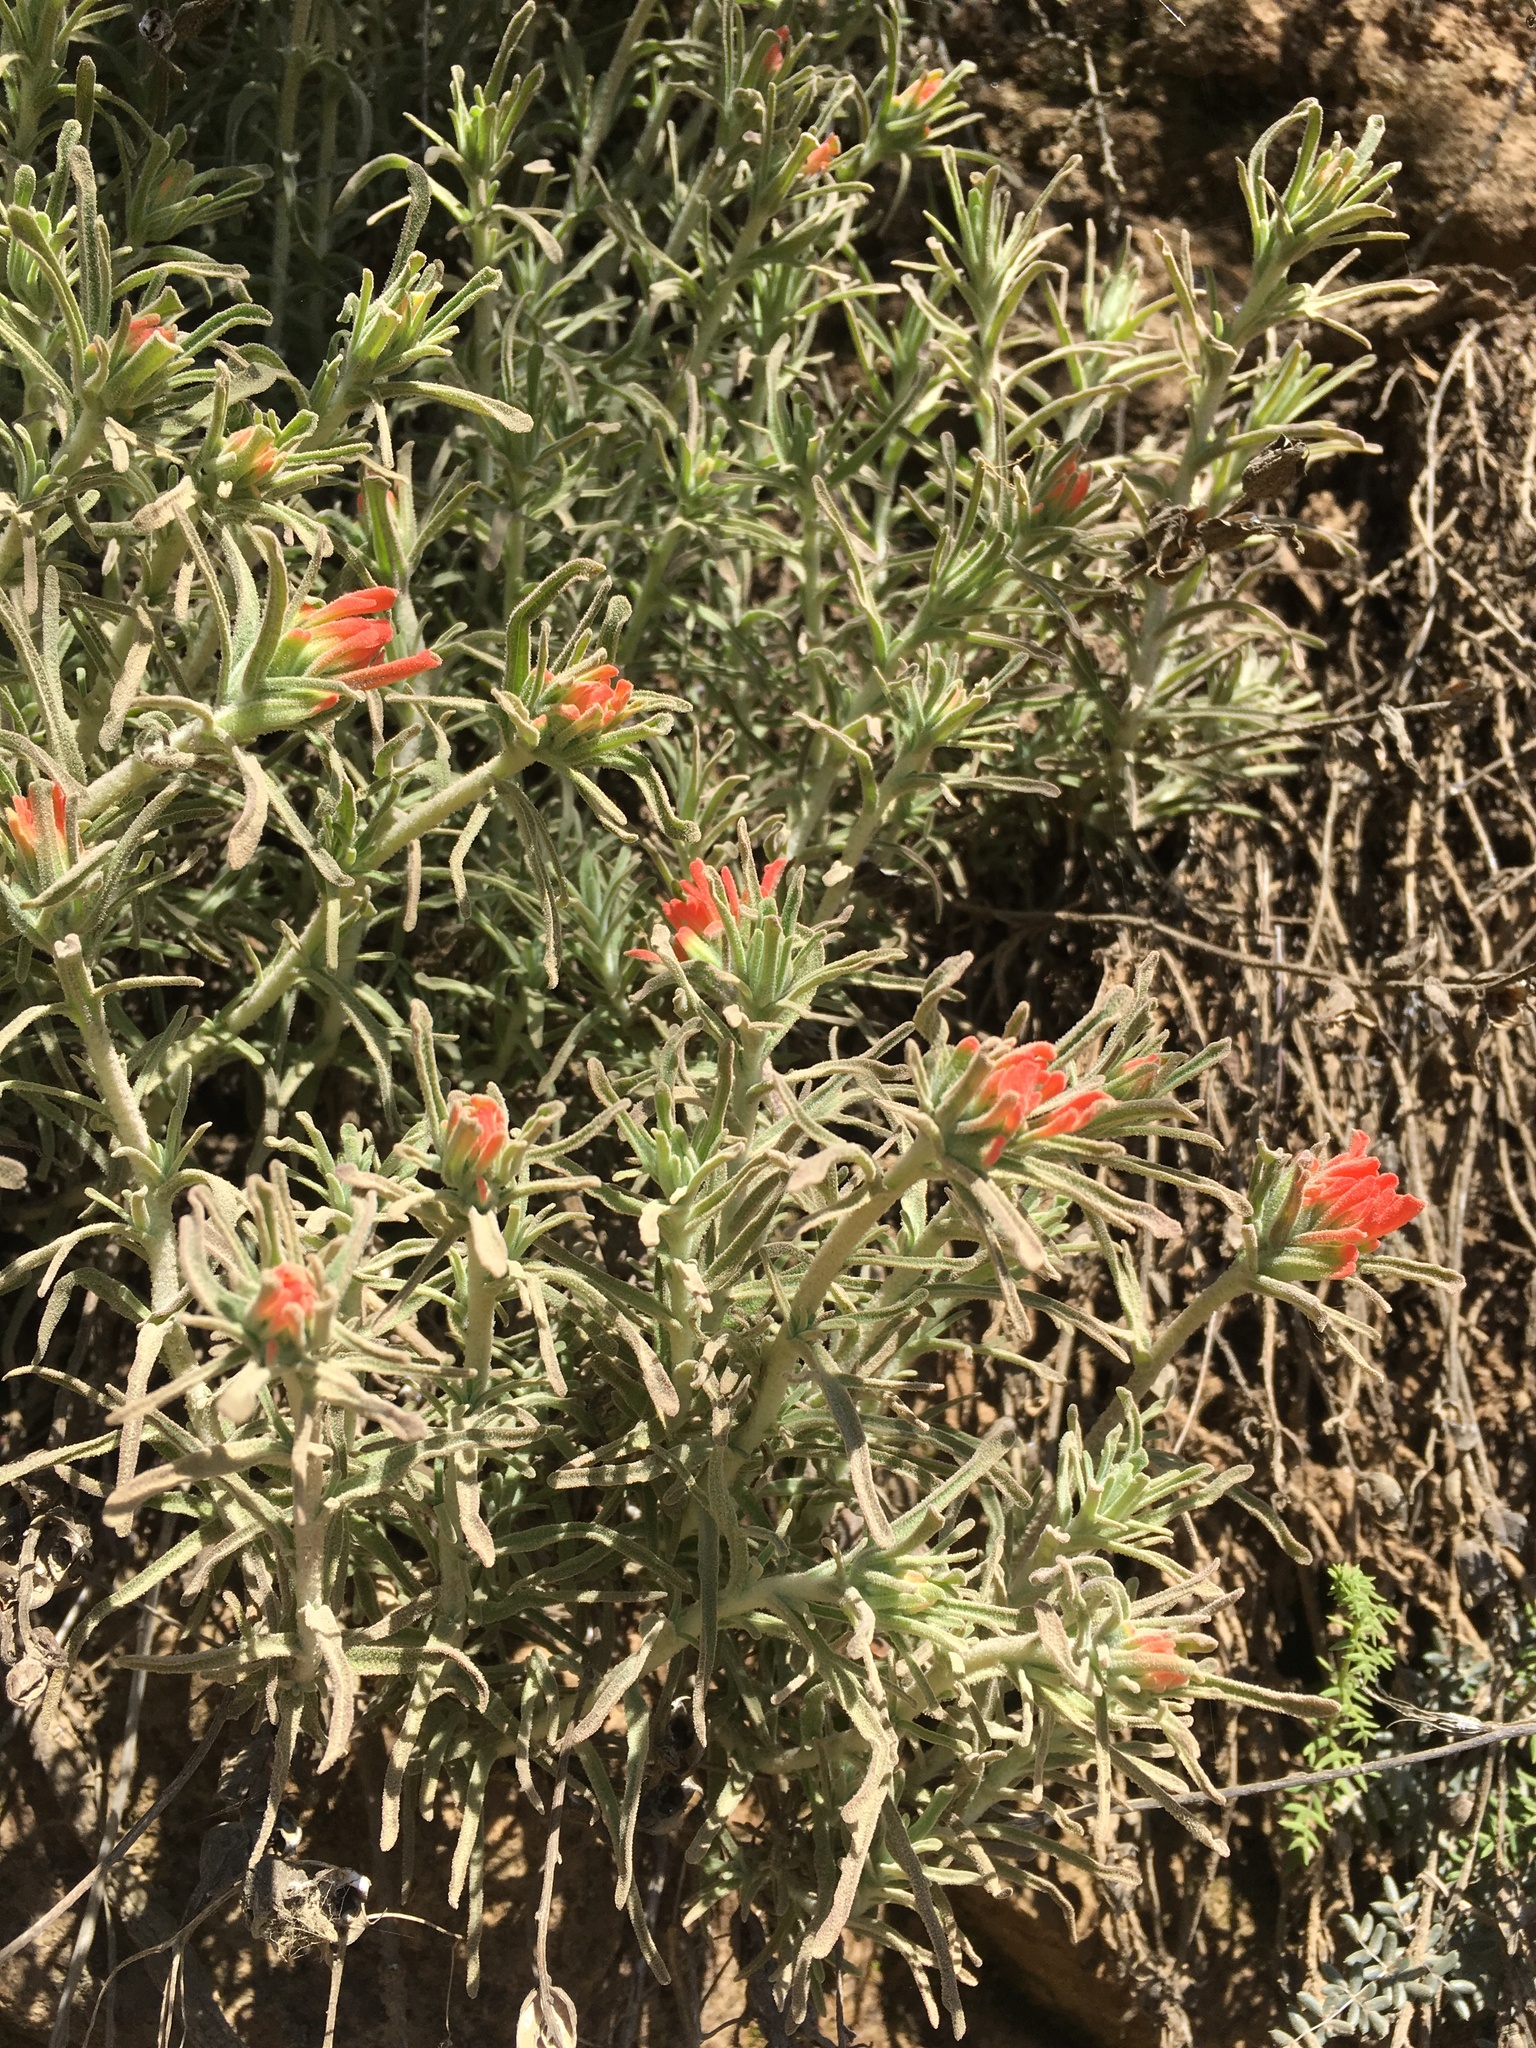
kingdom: Plantae
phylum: Tracheophyta
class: Magnoliopsida
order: Lamiales
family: Orobanchaceae
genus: Castilleja
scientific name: Castilleja foliolosa
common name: Woolly indian paintbrush
